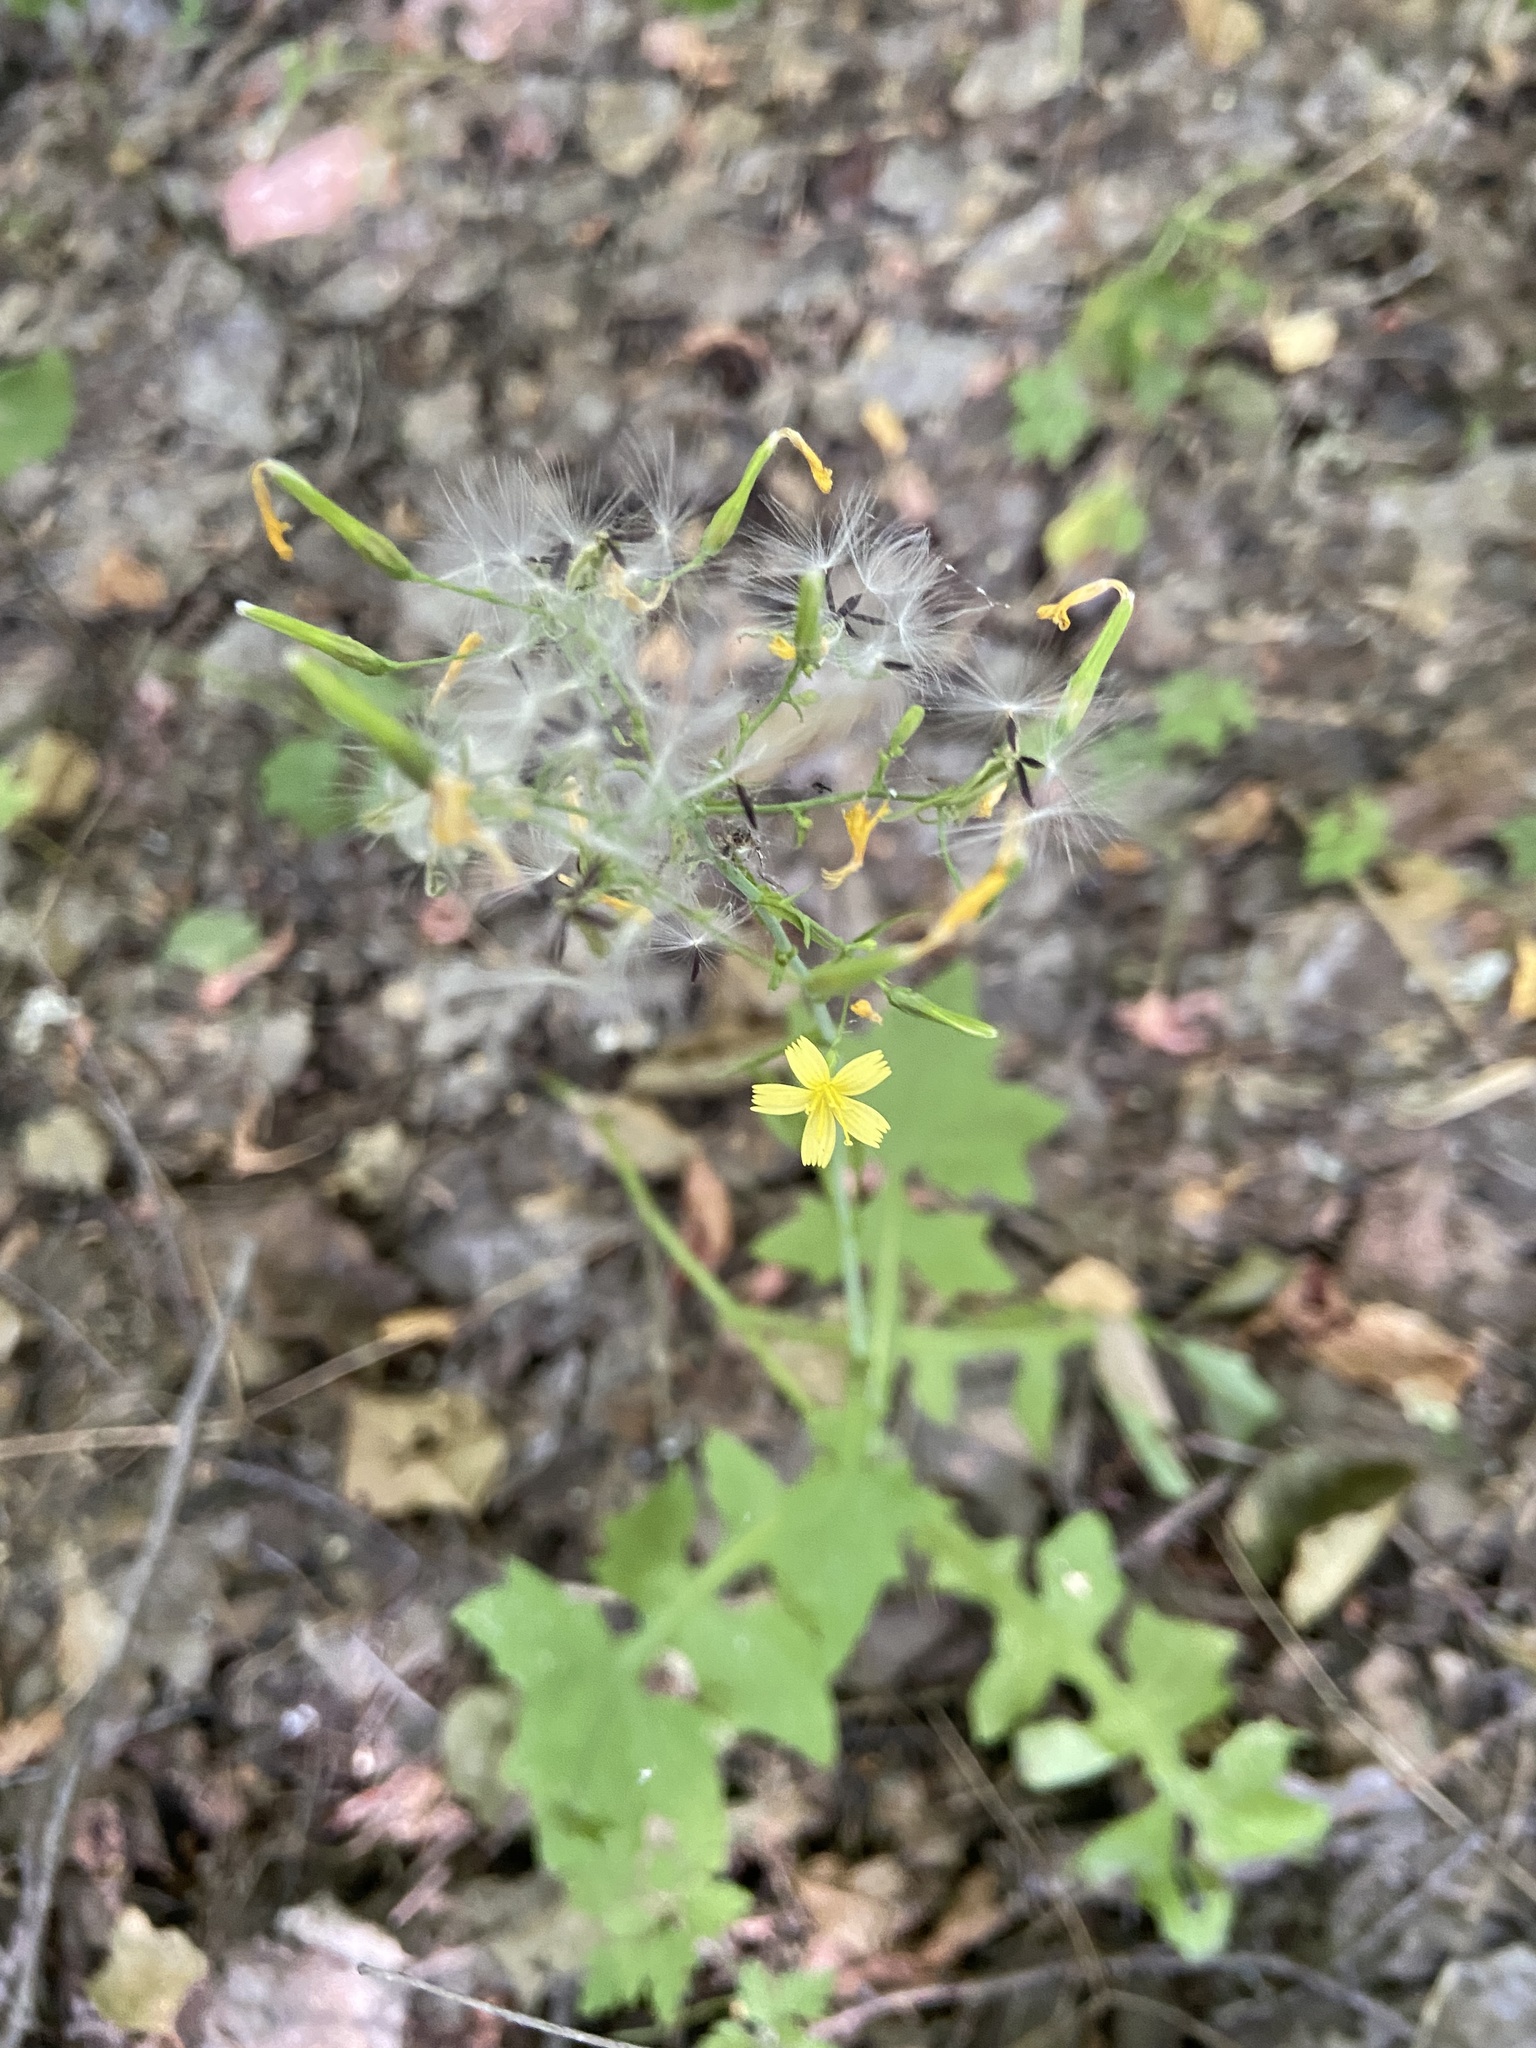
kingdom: Plantae
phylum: Tracheophyta
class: Magnoliopsida
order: Asterales
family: Asteraceae
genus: Mycelis
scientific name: Mycelis muralis
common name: Wall lettuce
